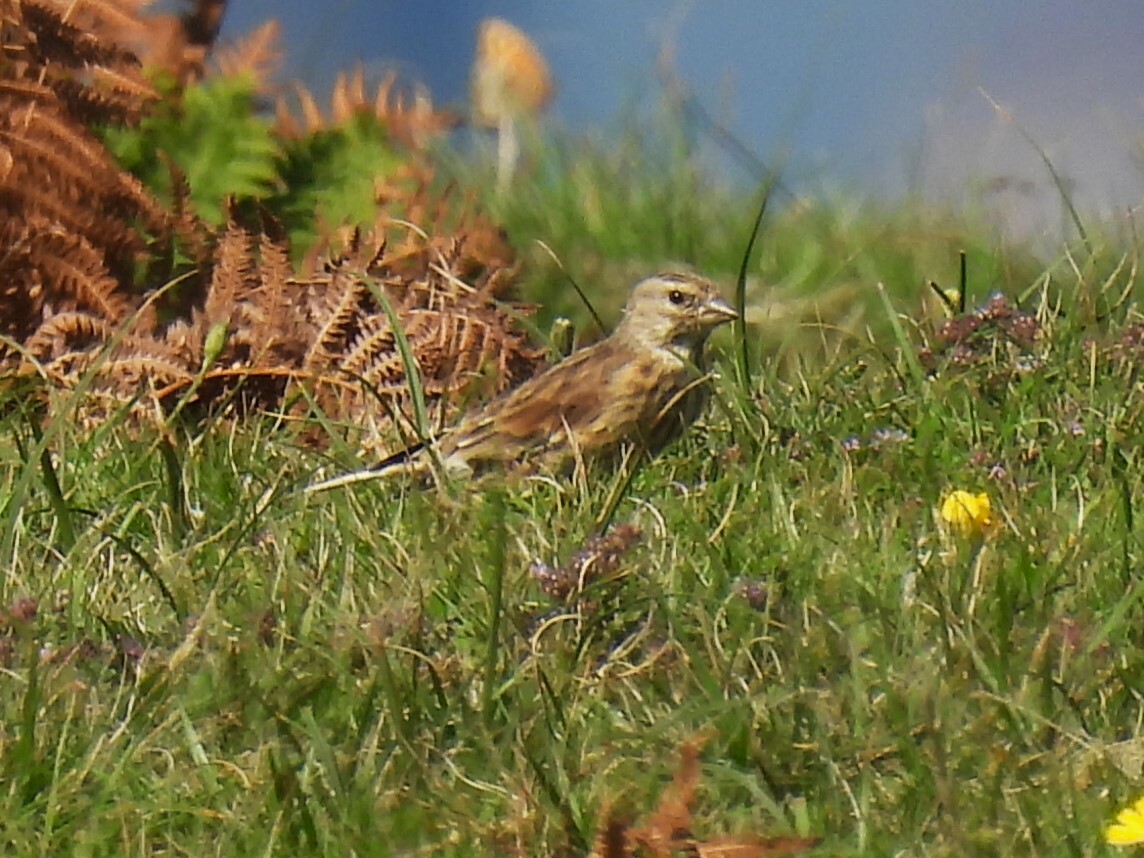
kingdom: Animalia
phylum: Chordata
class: Aves
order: Passeriformes
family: Fringillidae
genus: Linaria
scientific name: Linaria cannabina
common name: Common linnet
